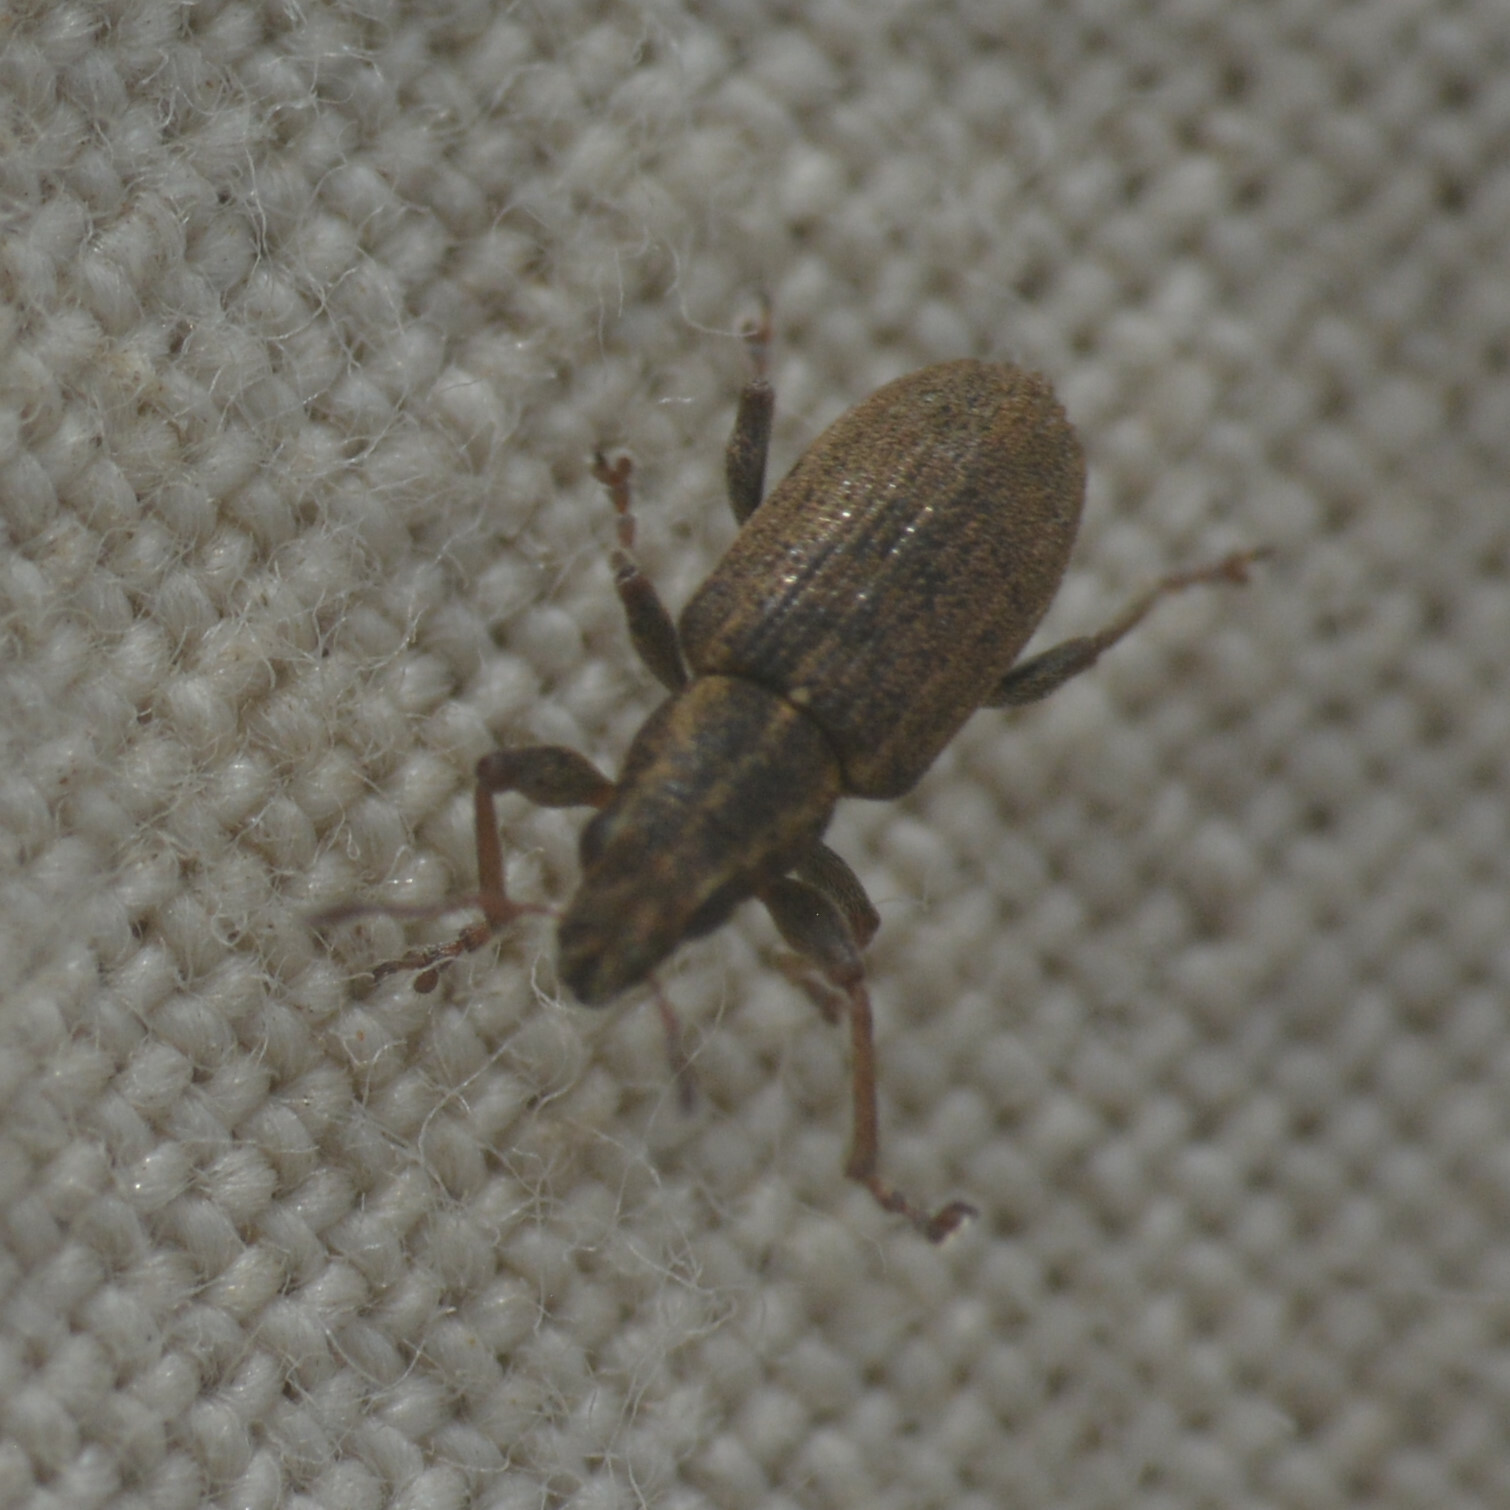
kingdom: Animalia
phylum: Arthropoda
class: Insecta
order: Coleoptera
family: Curculionidae
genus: Sitona
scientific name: Sitona lineatus
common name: Weevil
